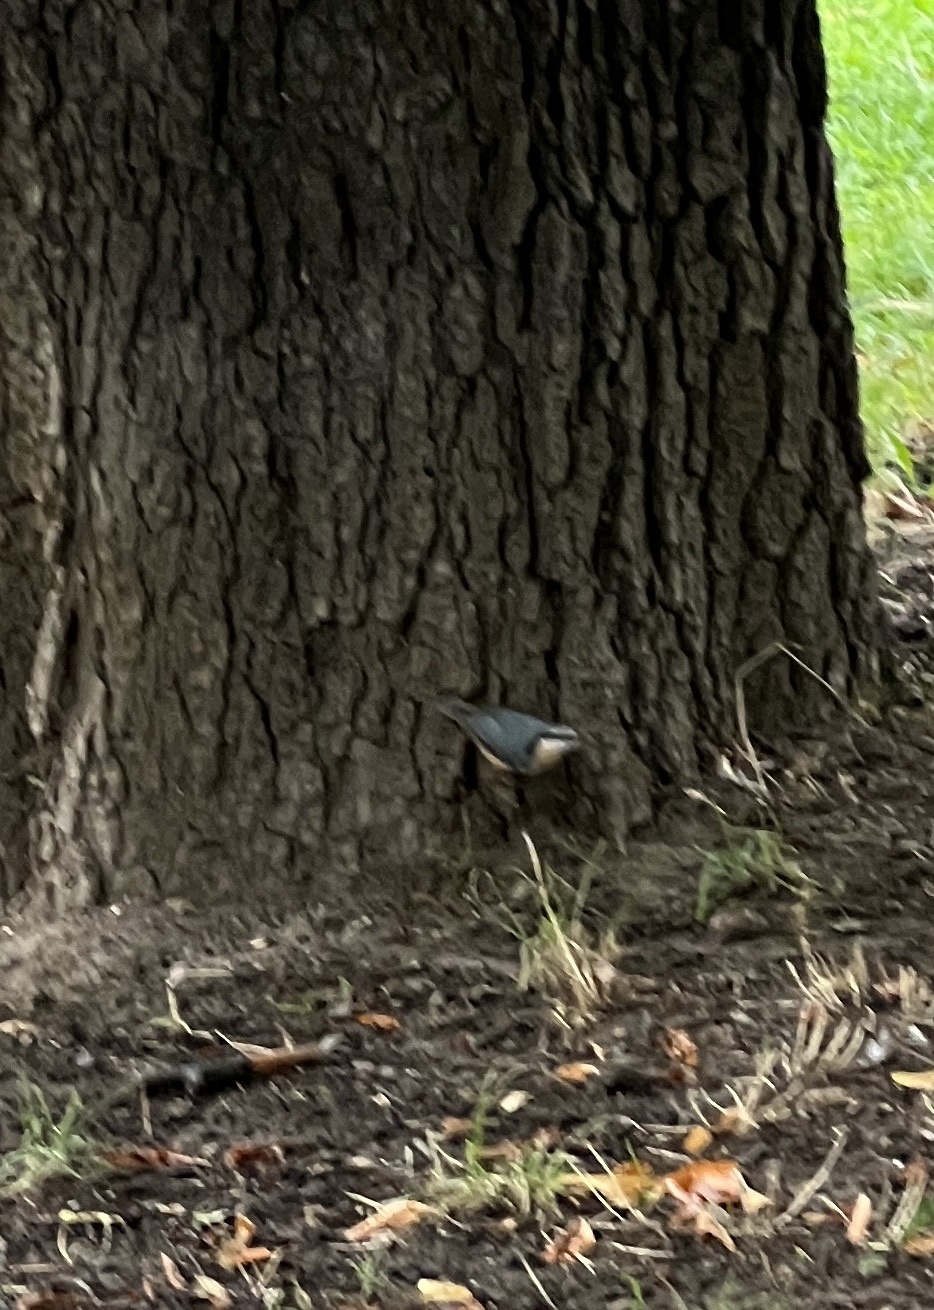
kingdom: Animalia
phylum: Chordata
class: Aves
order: Passeriformes
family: Sittidae
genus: Sitta
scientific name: Sitta europaea
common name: Eurasian nuthatch
